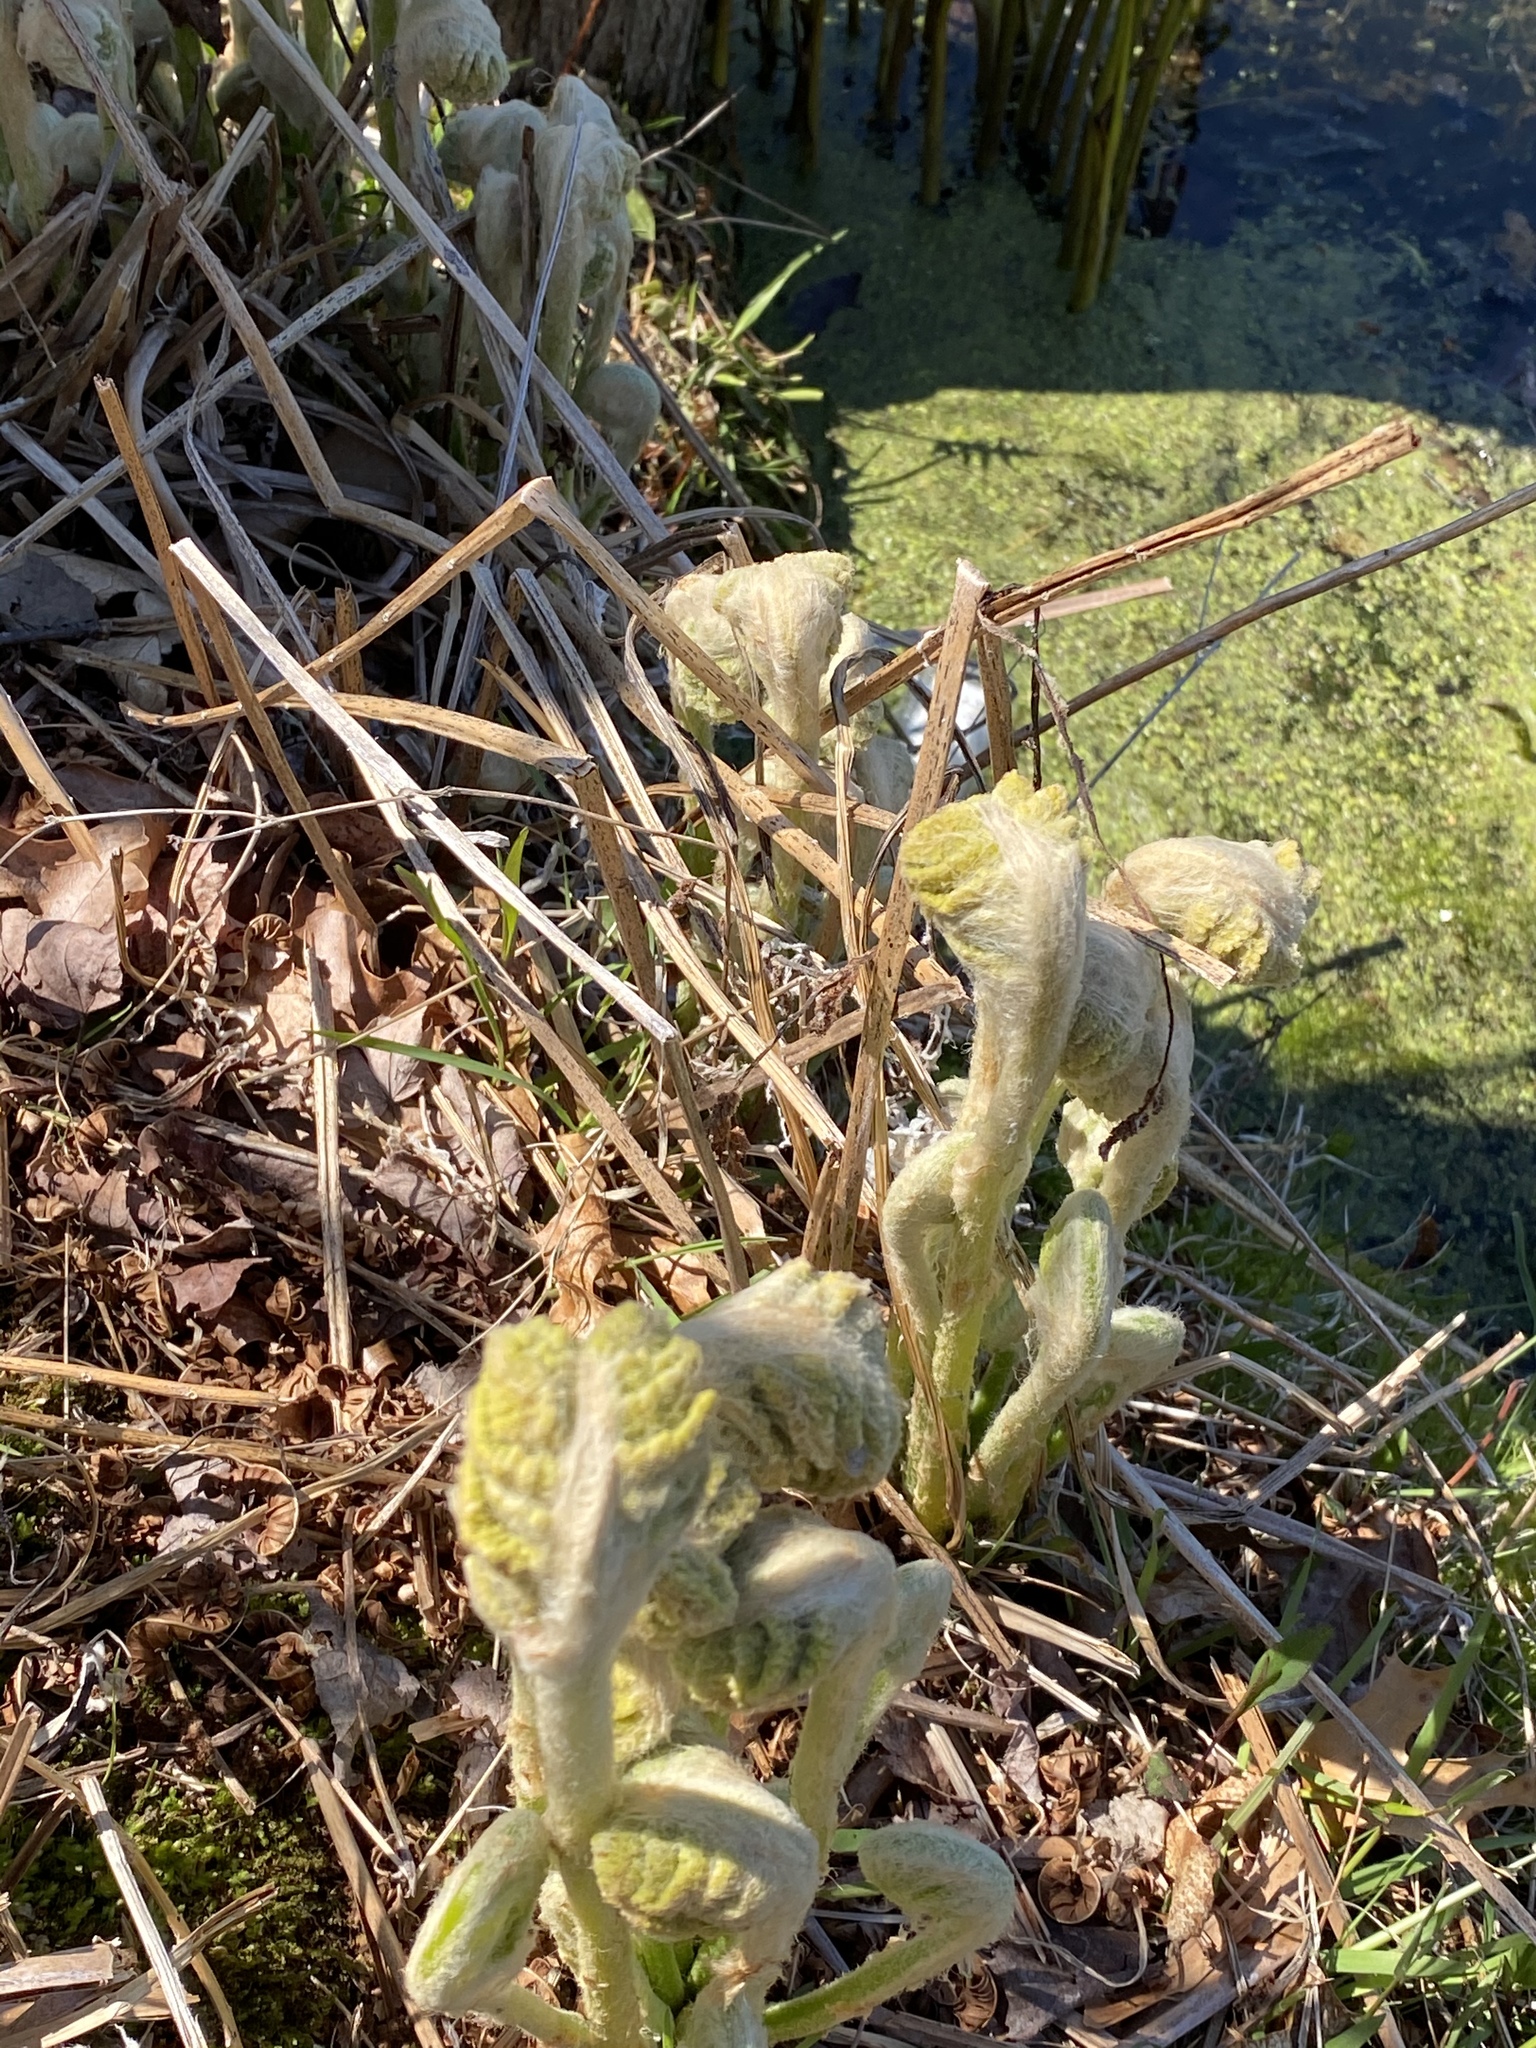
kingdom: Plantae
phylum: Tracheophyta
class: Polypodiopsida
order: Osmundales
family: Osmundaceae
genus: Osmundastrum
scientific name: Osmundastrum cinnamomeum
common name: Cinnamon fern
